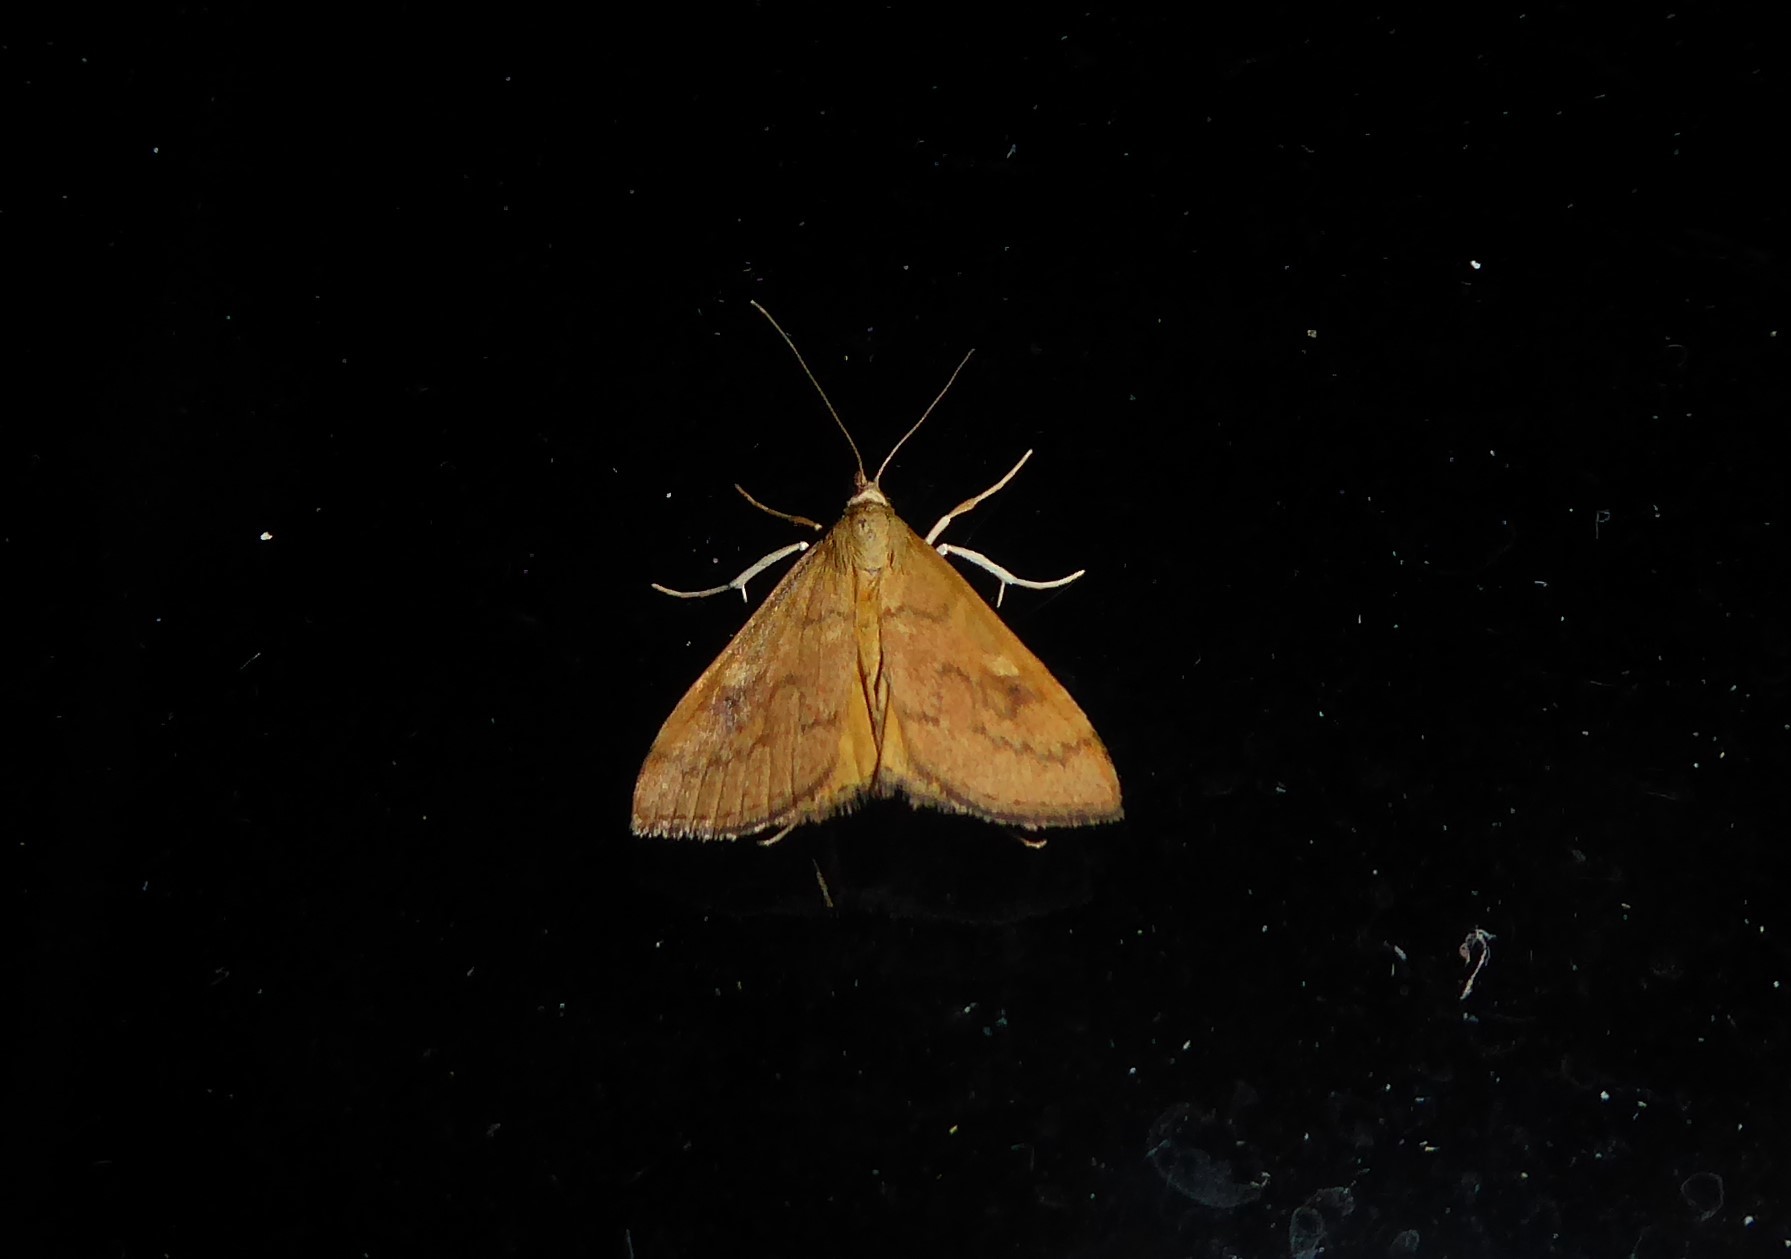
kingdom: Animalia
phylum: Arthropoda
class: Insecta
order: Lepidoptera
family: Crambidae
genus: Udea
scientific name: Udea Mnesictena flavidalis
